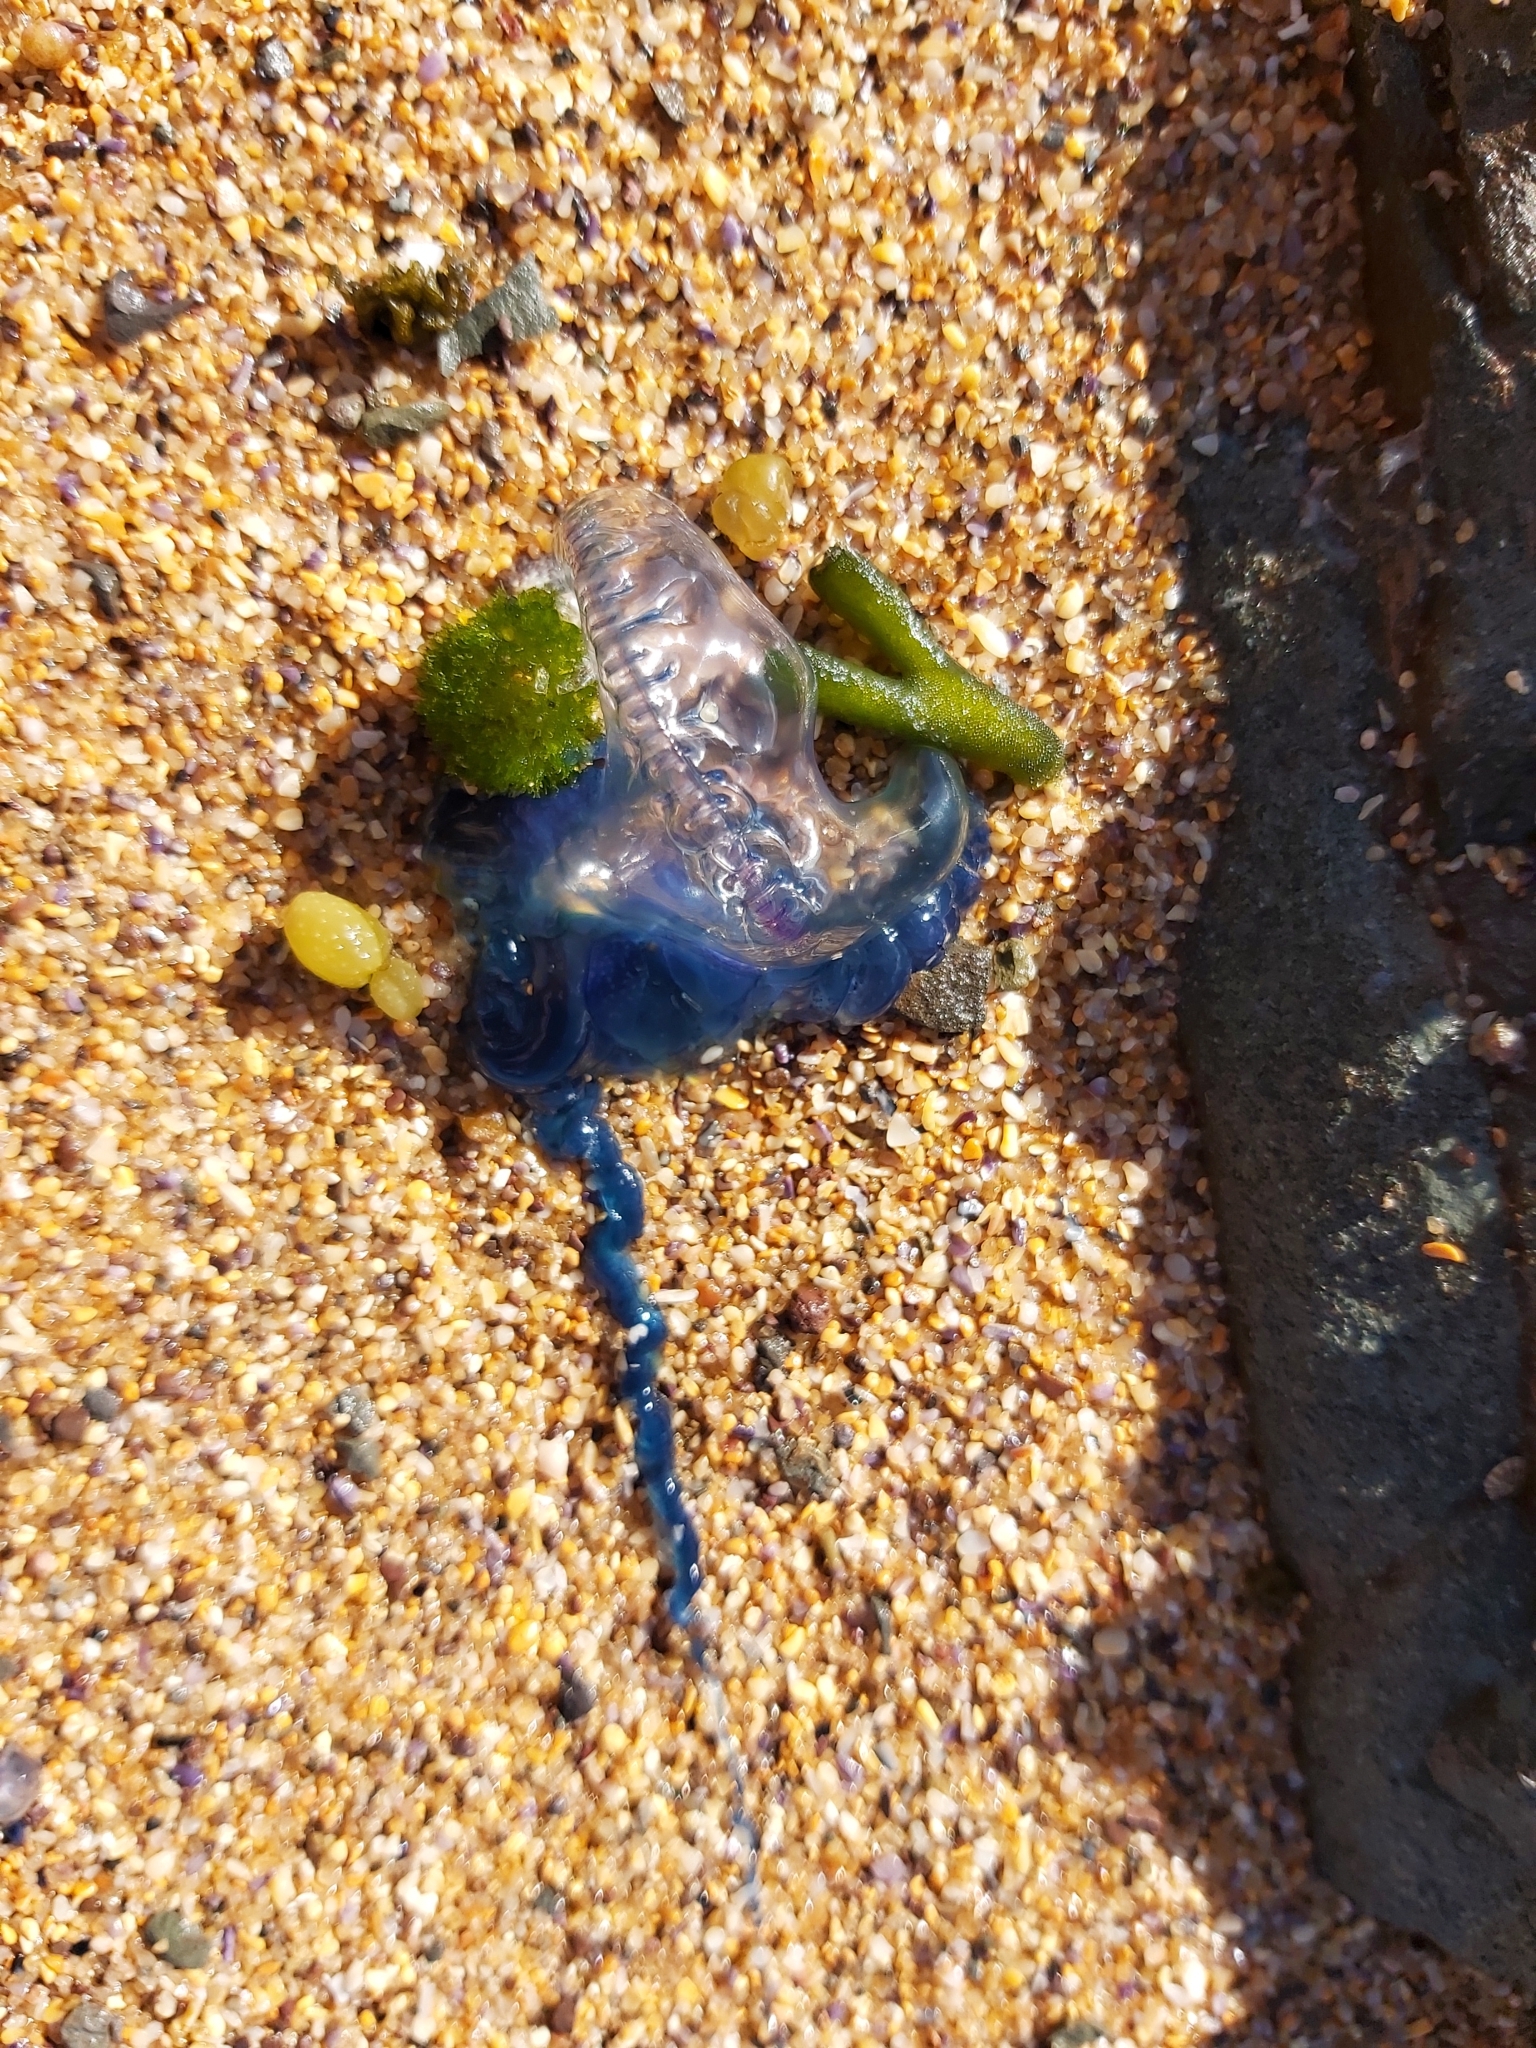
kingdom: Animalia
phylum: Cnidaria
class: Hydrozoa
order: Siphonophorae
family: Physaliidae
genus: Physalia
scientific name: Physalia physalis
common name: Portuguese man-of-war
